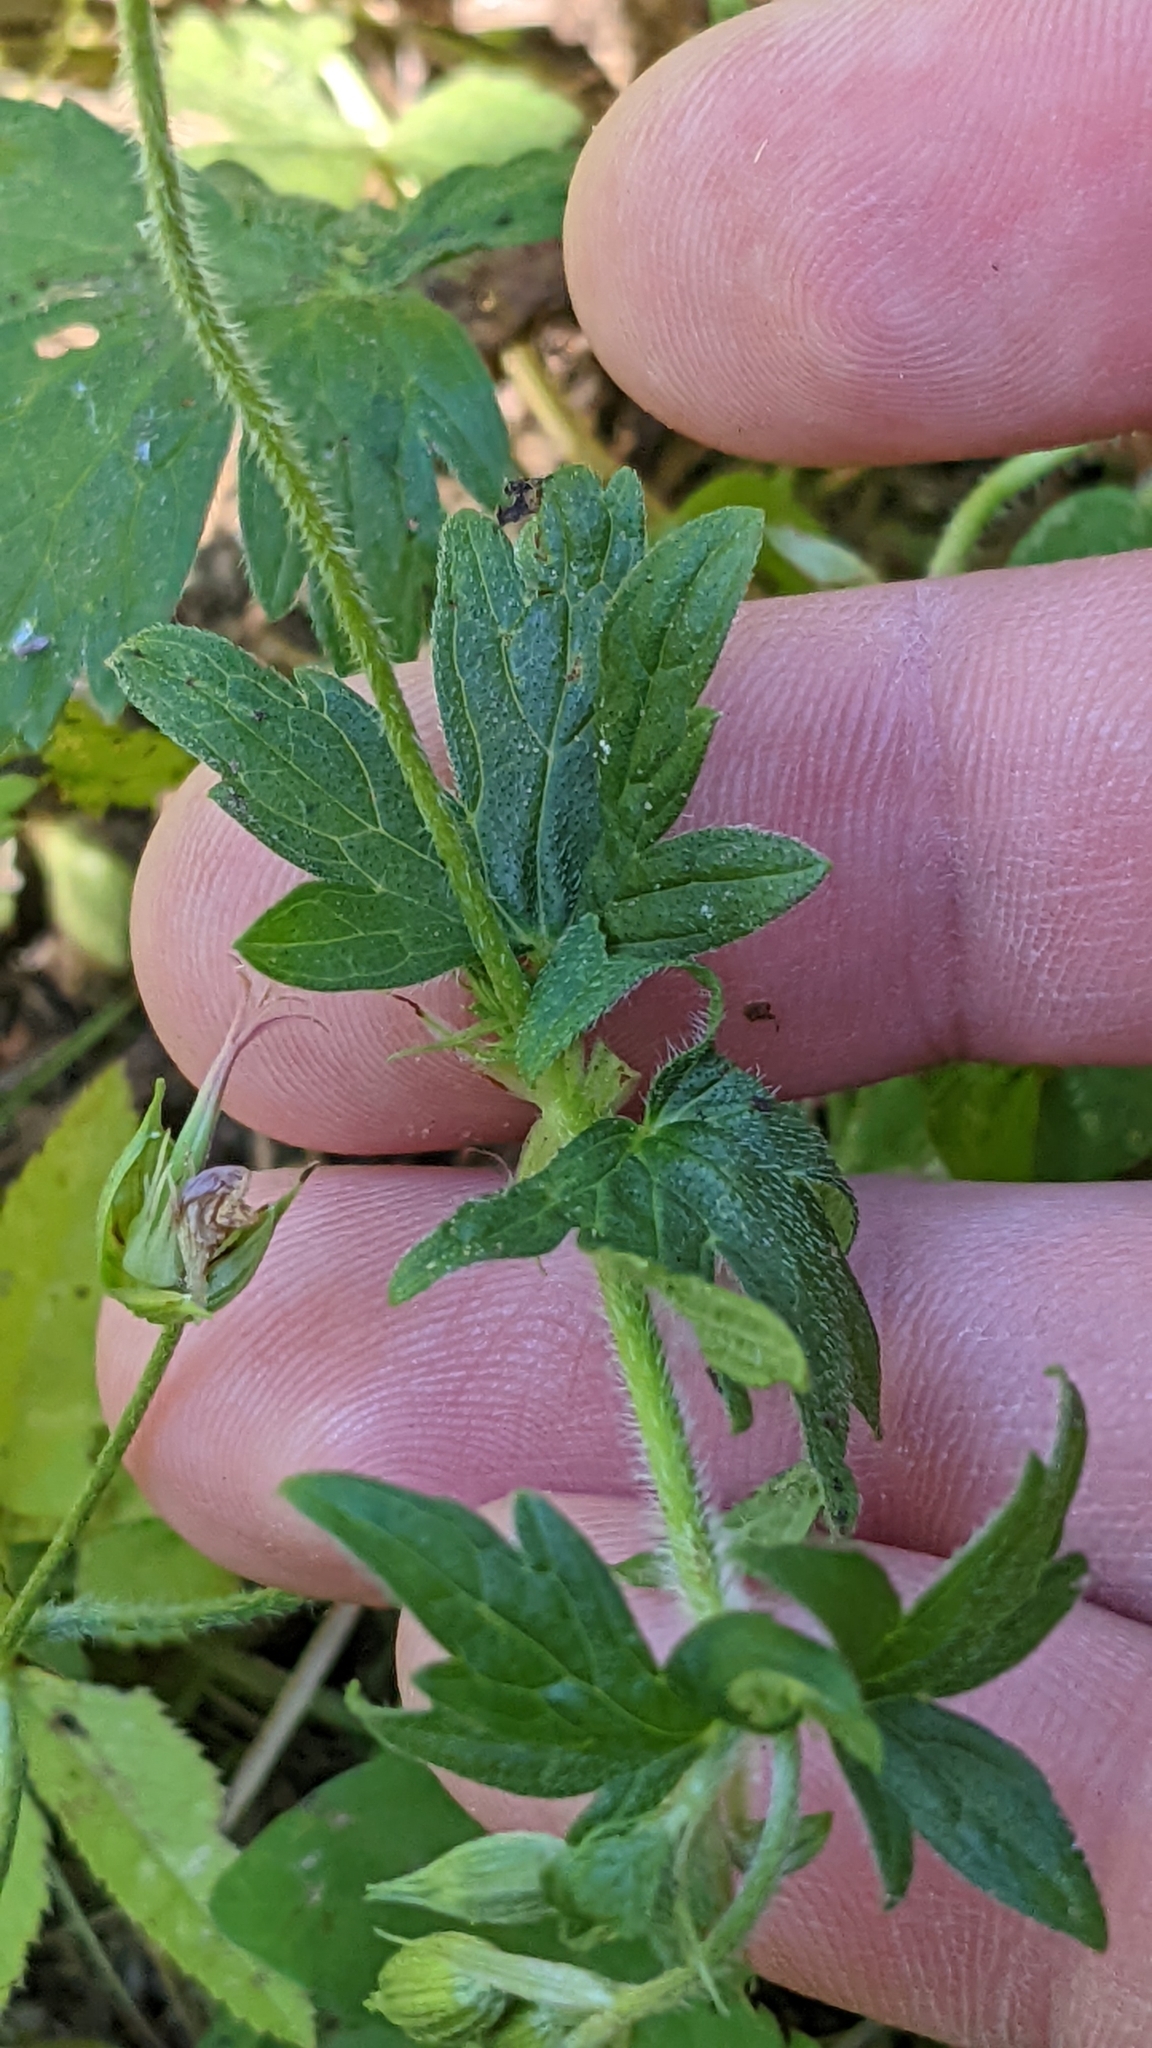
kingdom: Plantae
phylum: Tracheophyta
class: Magnoliopsida
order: Geraniales
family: Geraniaceae
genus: Geranium
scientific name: Geranium palustre
